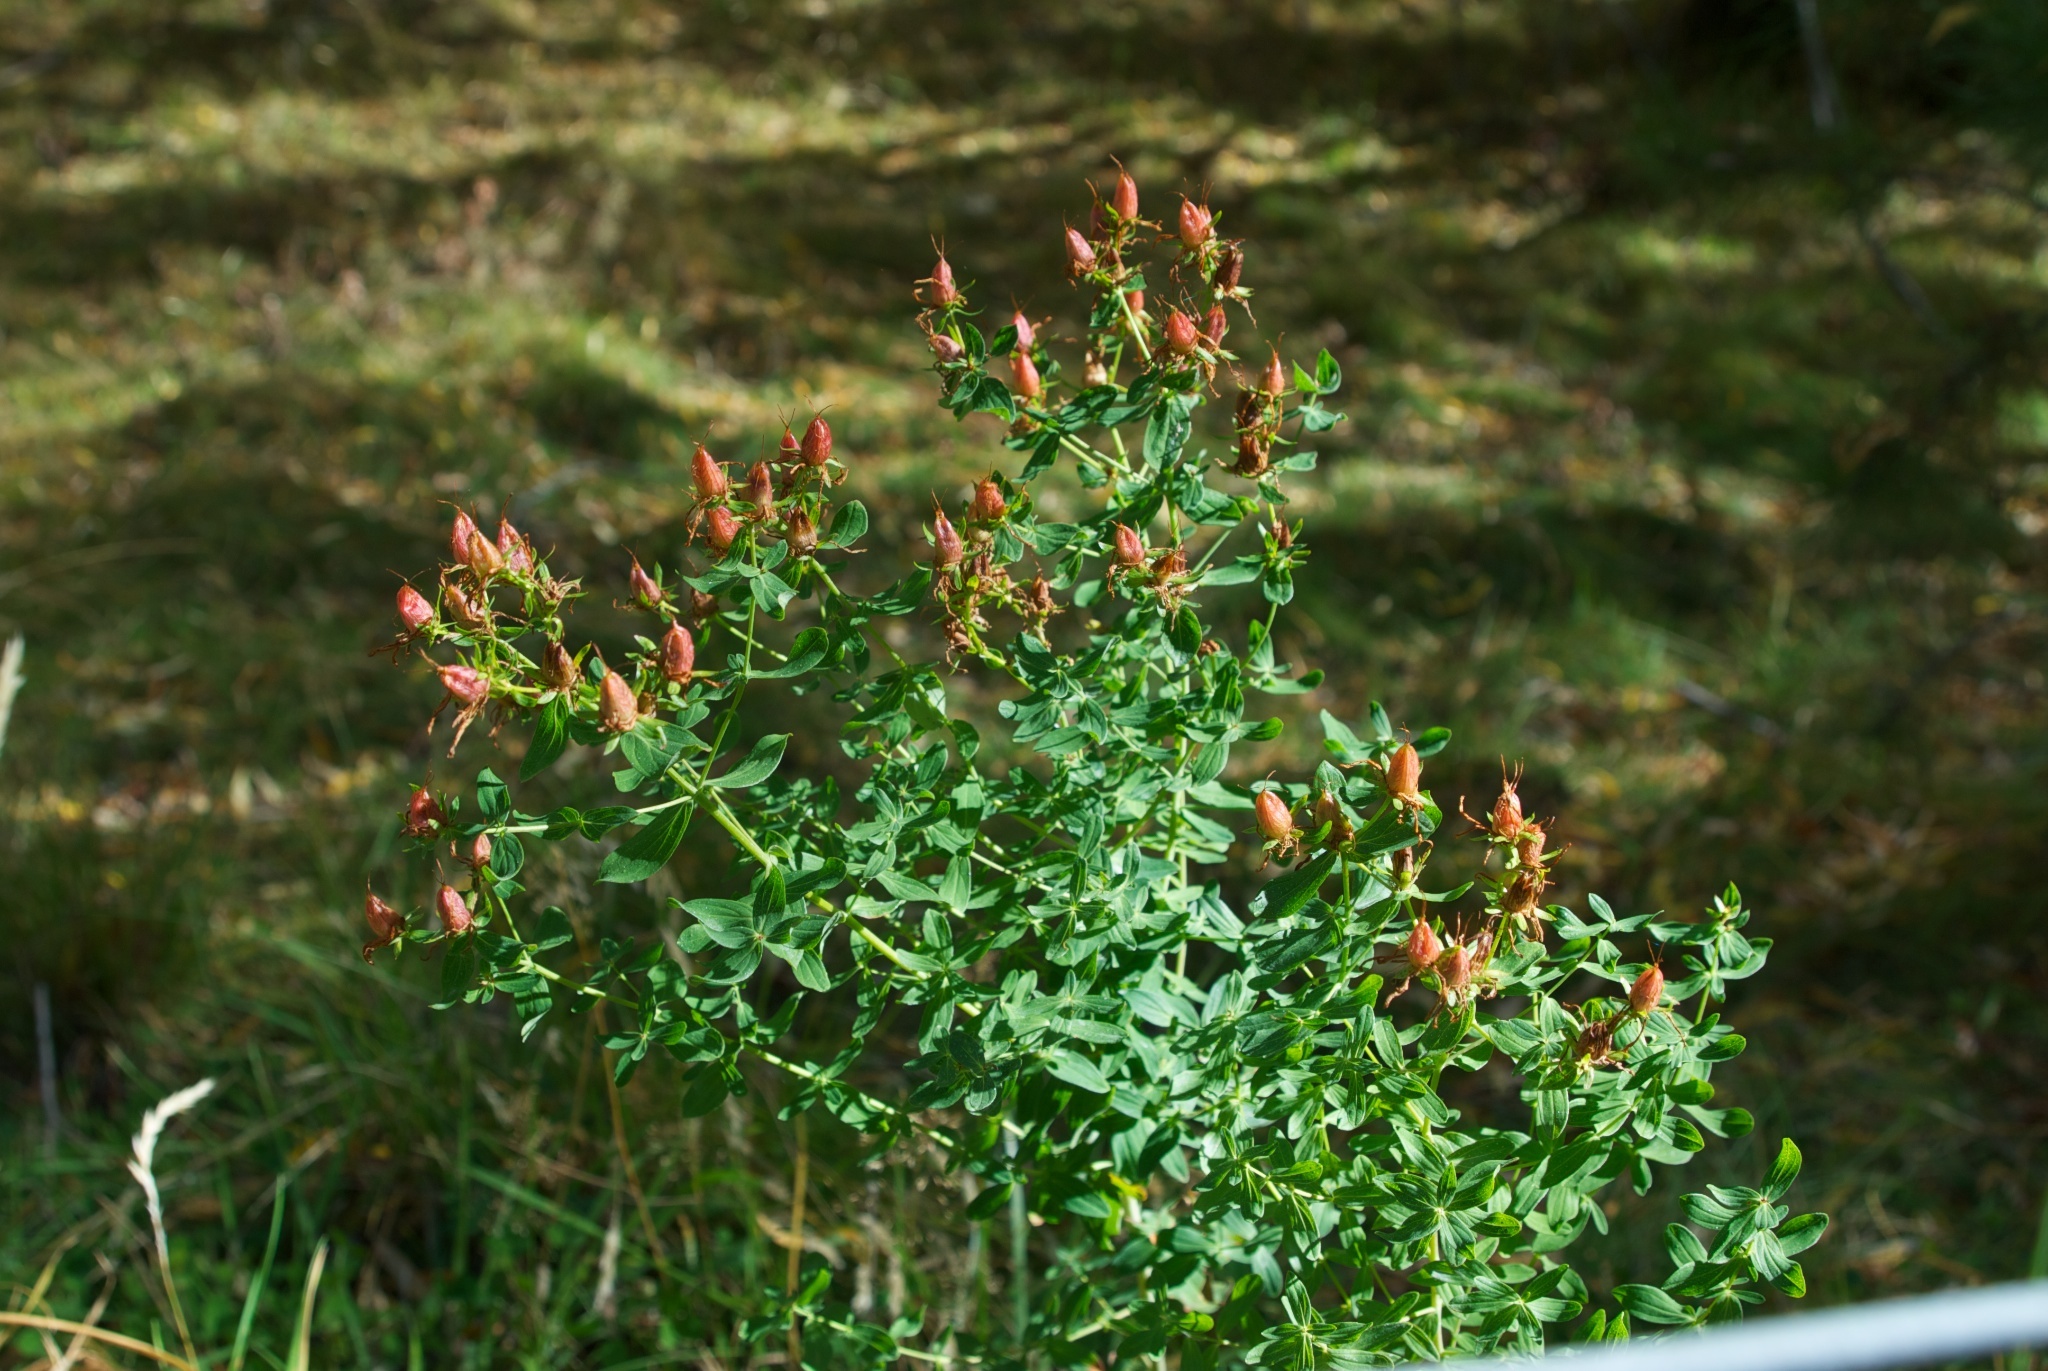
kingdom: Plantae
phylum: Tracheophyta
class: Magnoliopsida
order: Malpighiales
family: Hypericaceae
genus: Hypericum
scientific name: Hypericum perforatum
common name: Common st. johnswort
